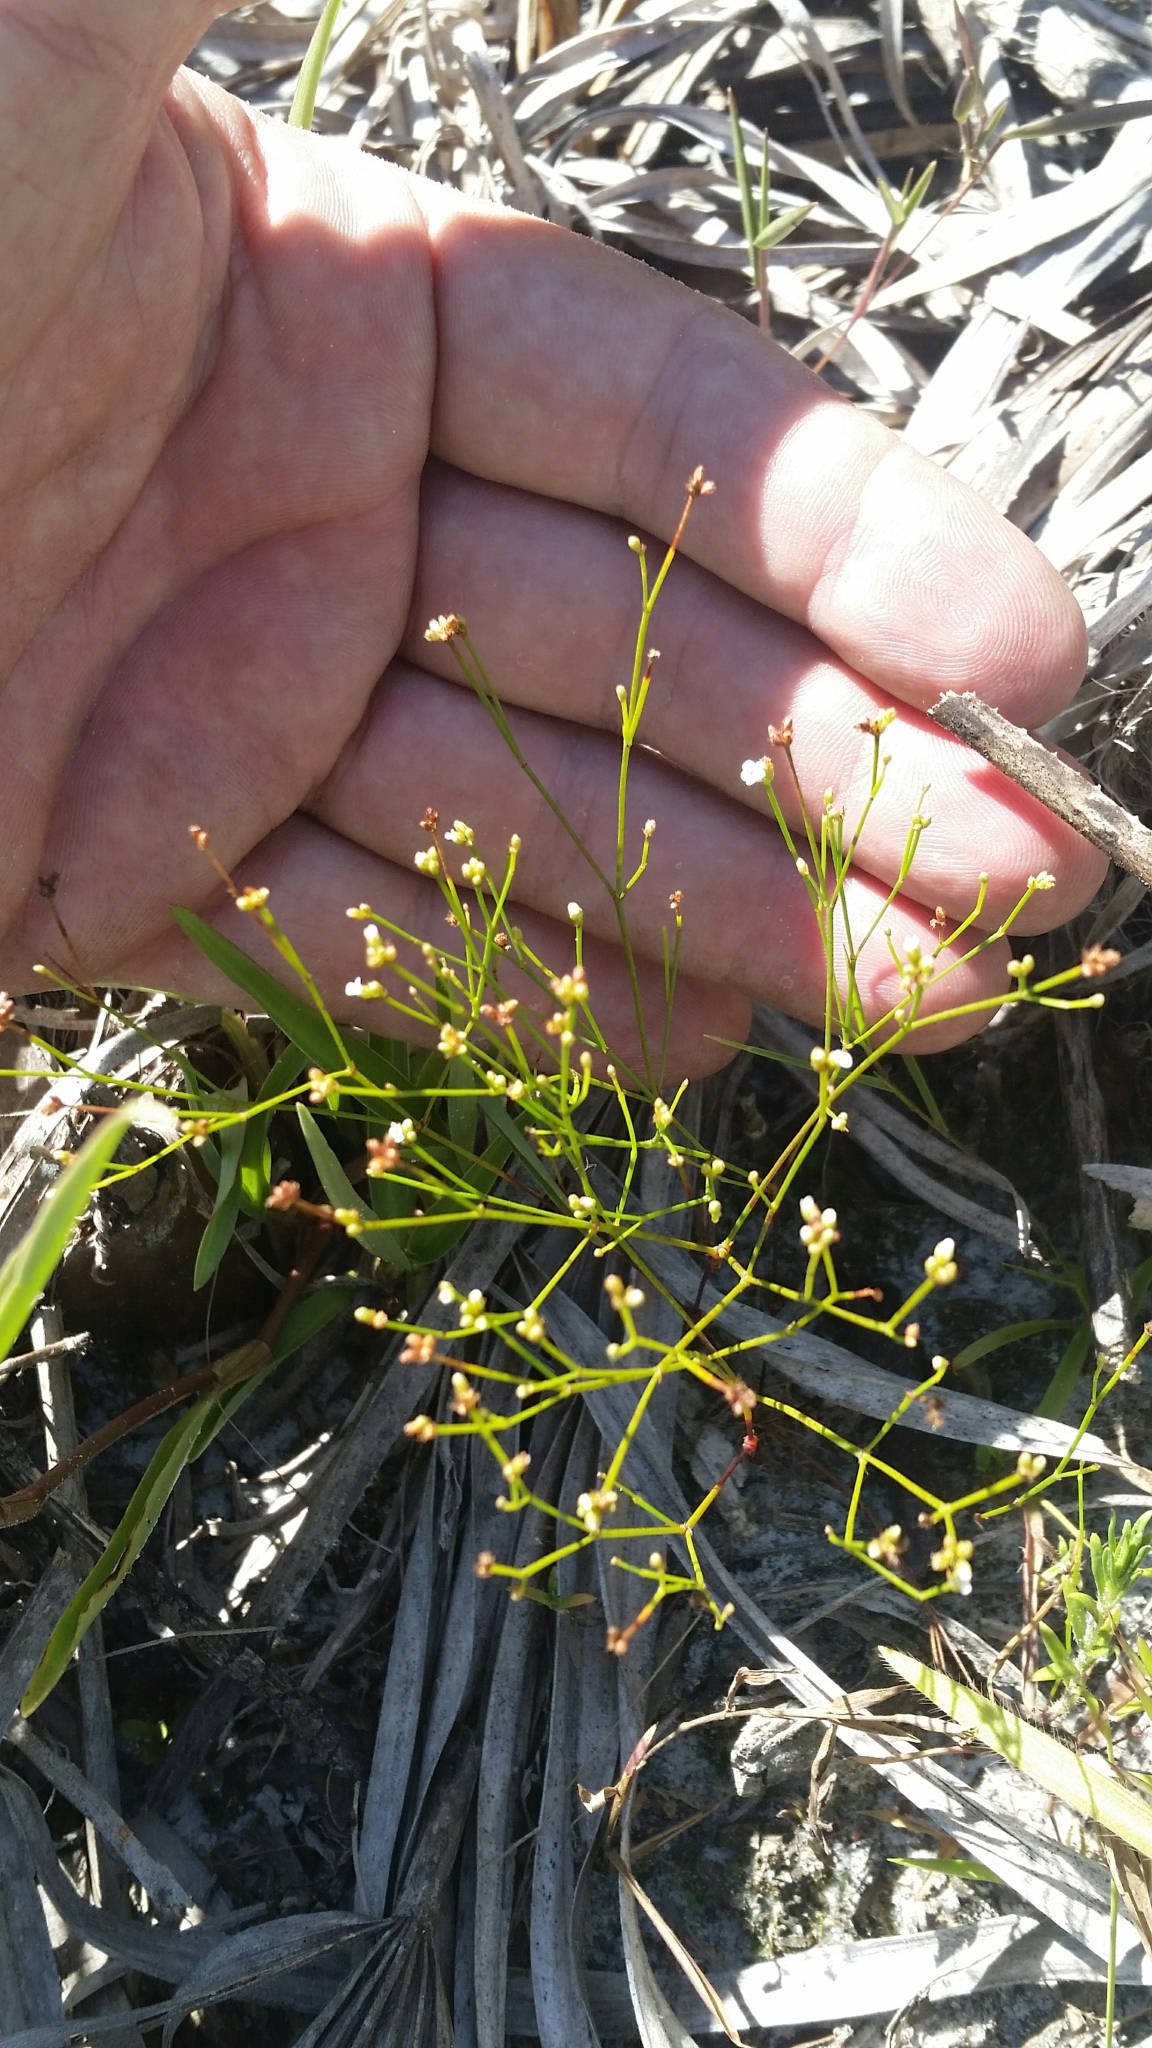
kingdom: Plantae
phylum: Tracheophyta
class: Magnoliopsida
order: Caryophyllales
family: Caryophyllaceae
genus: Stipulicida
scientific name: Stipulicida setacea
